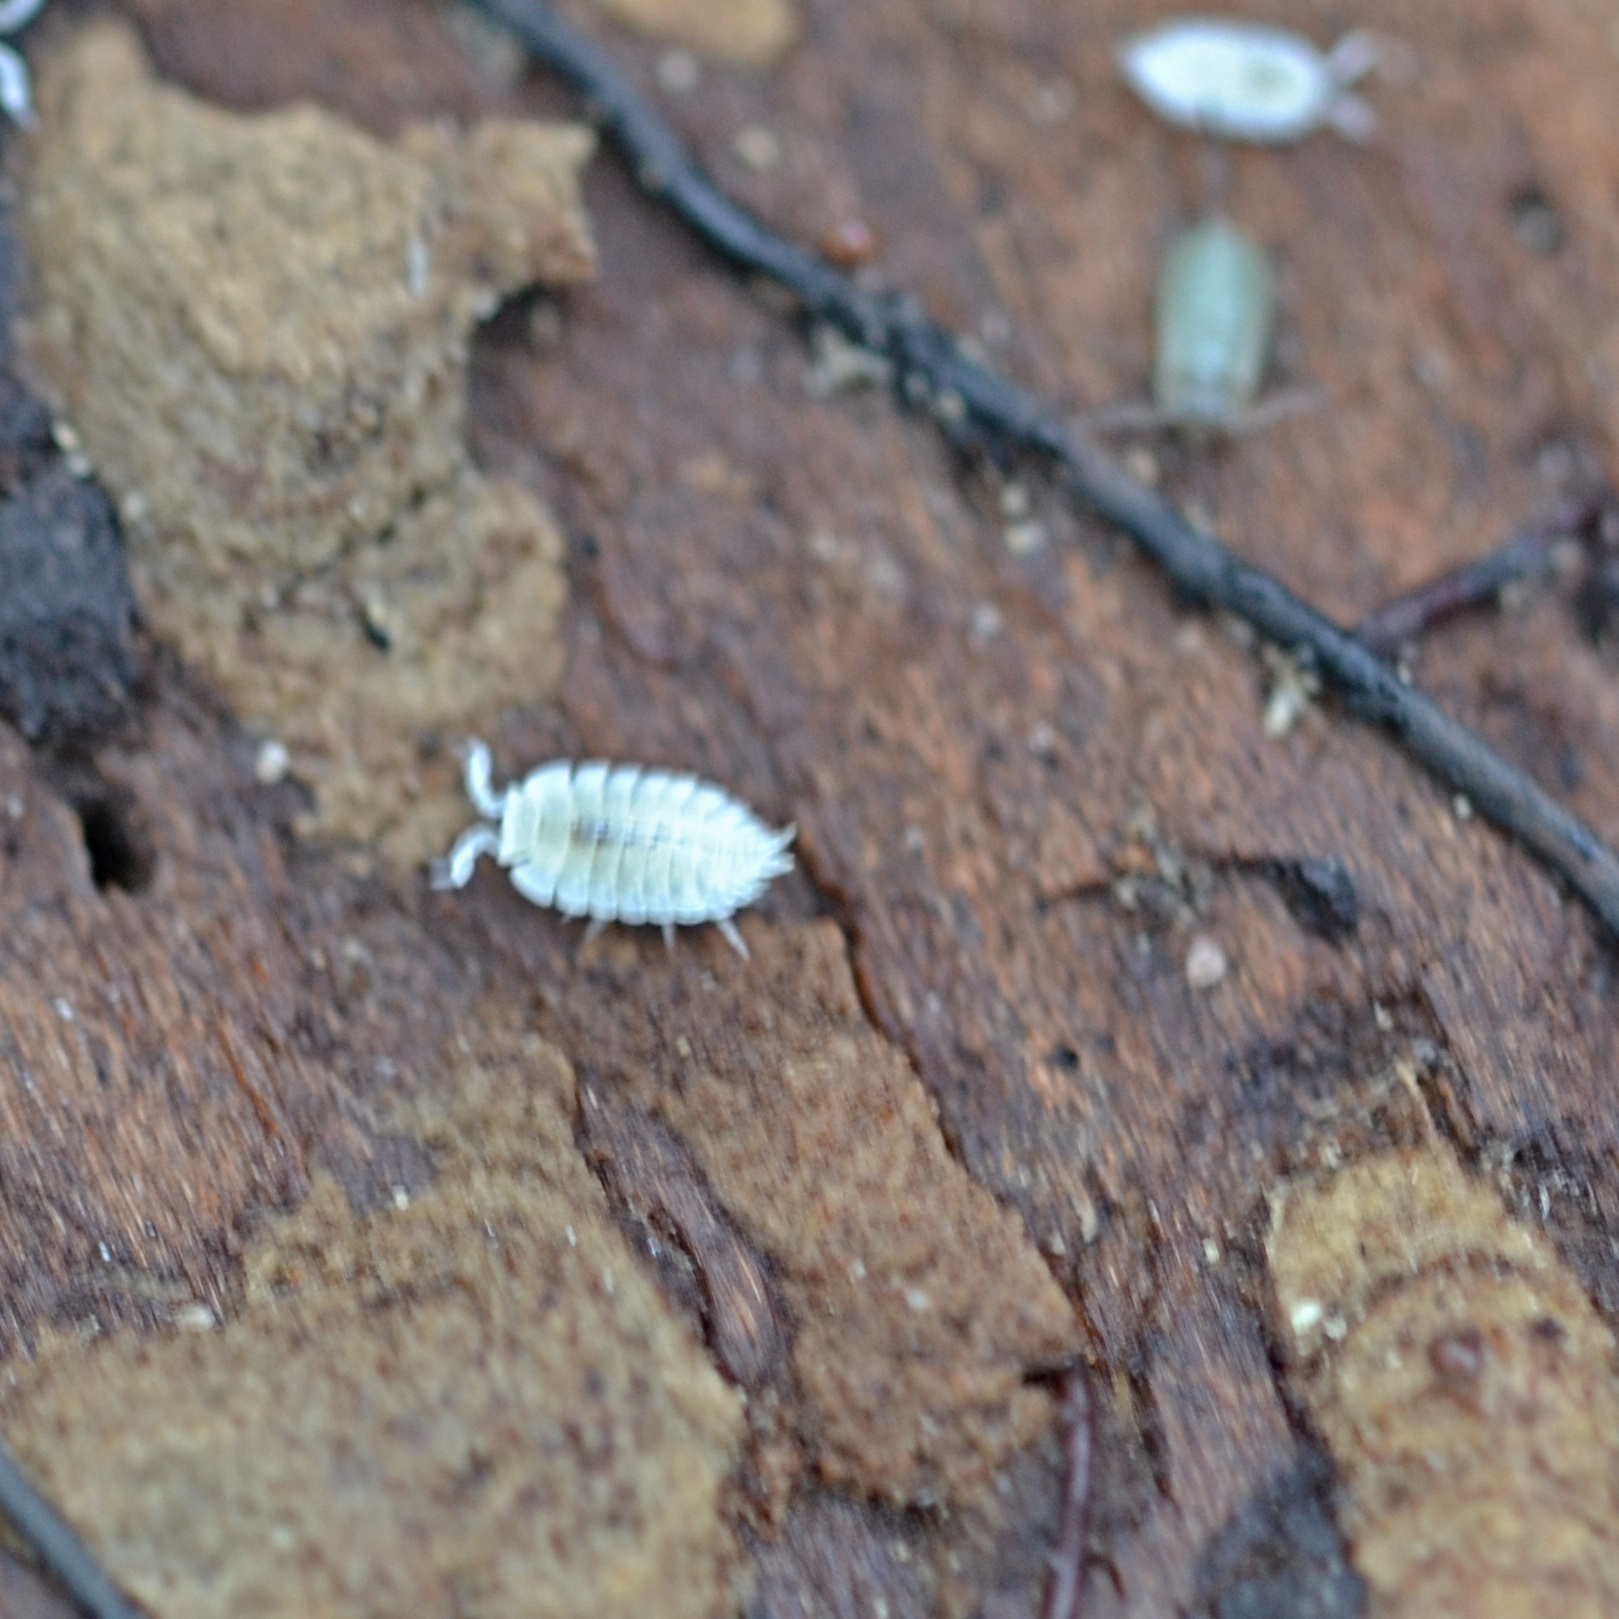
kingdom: Animalia
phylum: Arthropoda
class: Malacostraca
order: Isopoda
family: Platyarthridae
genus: Platyarthrus
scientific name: Platyarthrus hoffmannseggii
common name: Ant woodlouse
